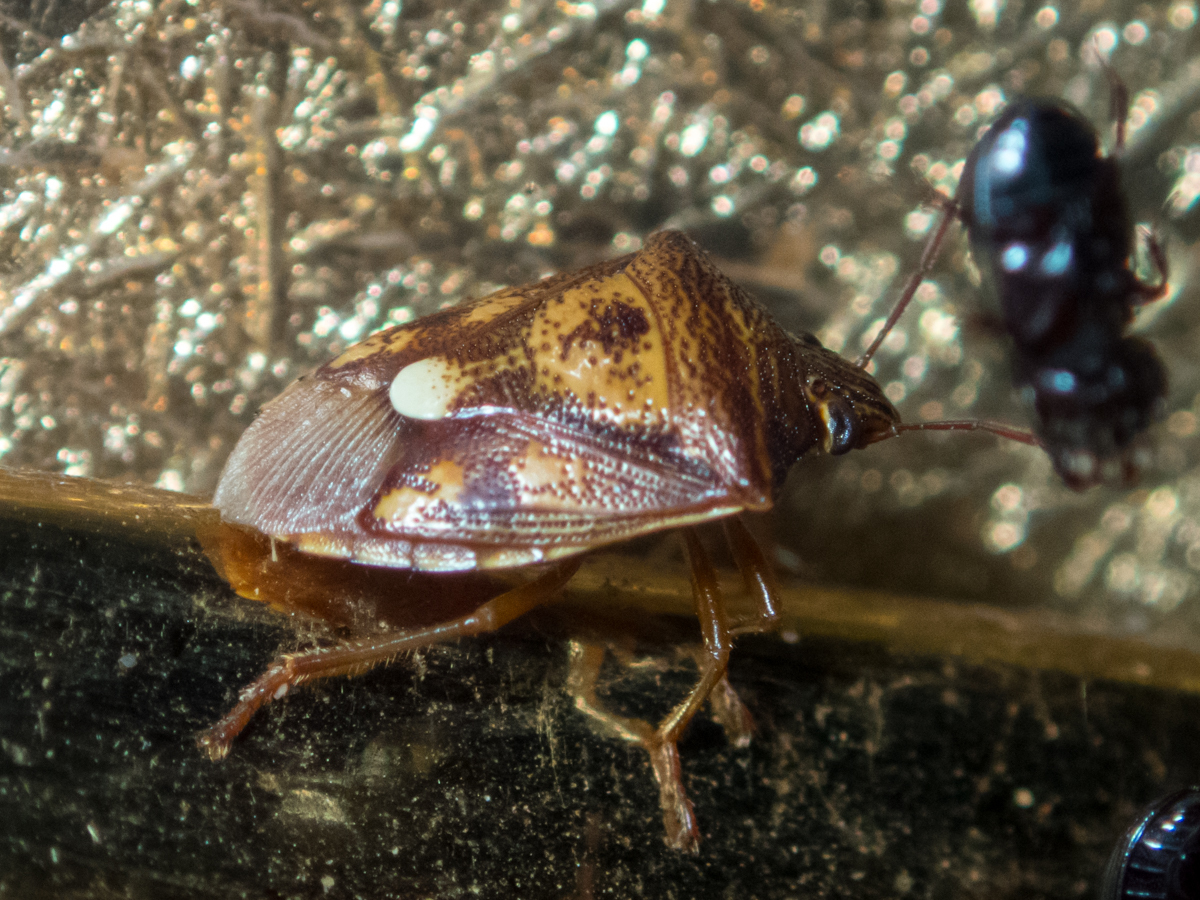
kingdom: Animalia
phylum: Arthropoda
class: Insecta
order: Hemiptera
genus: Starioides
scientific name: Starioides
